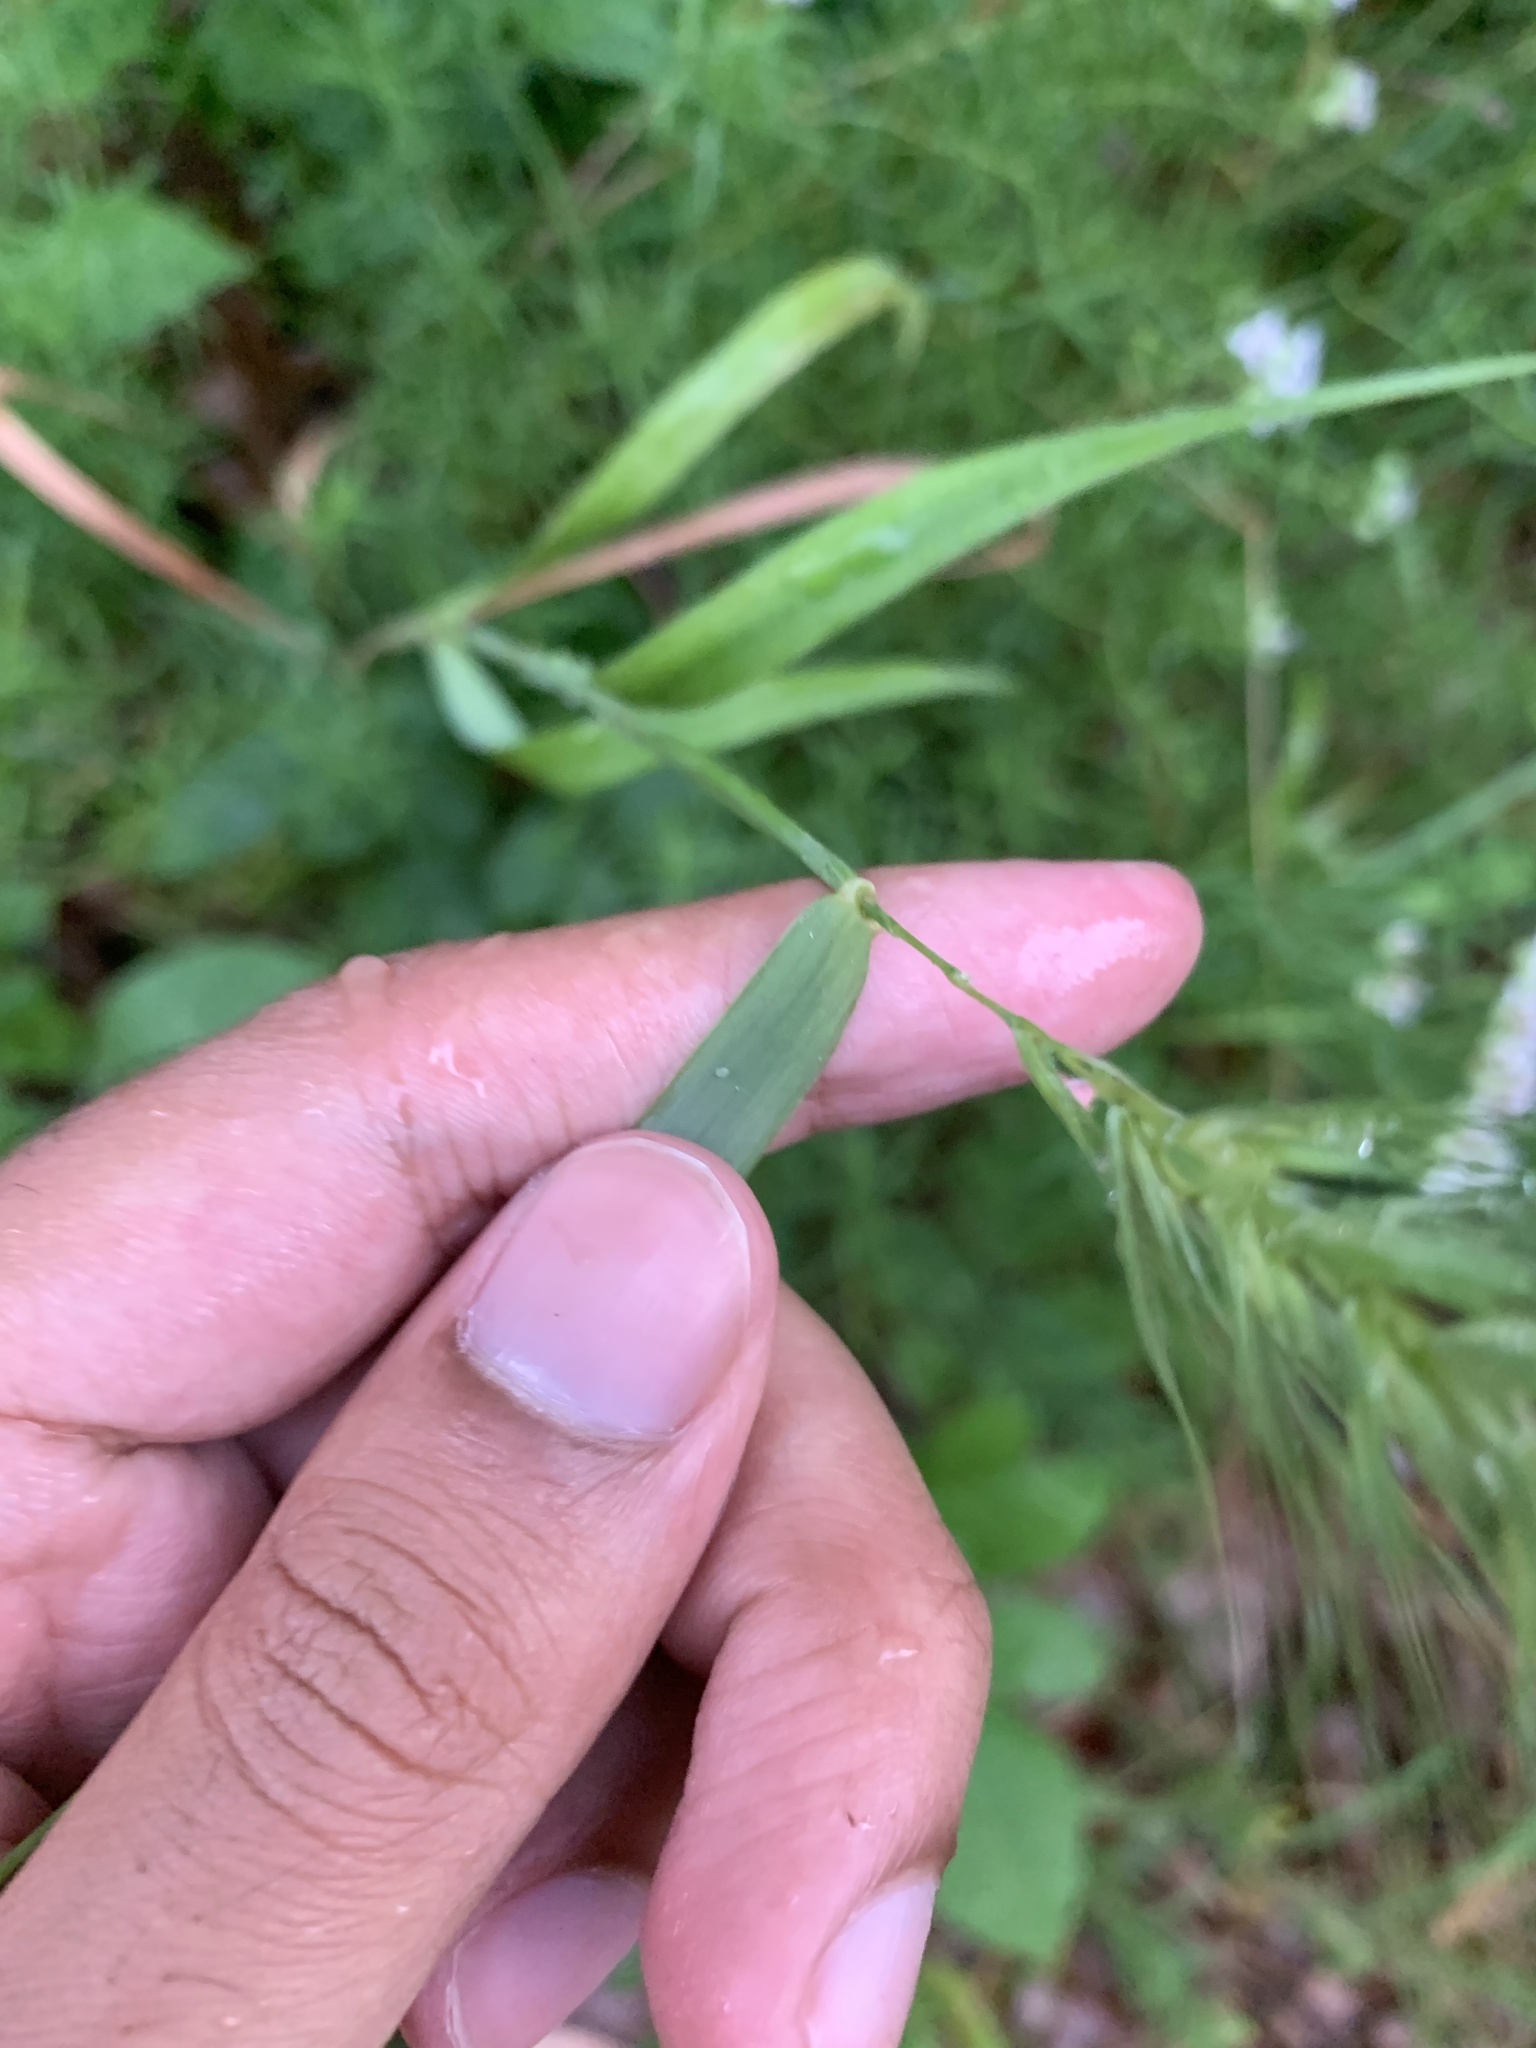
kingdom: Plantae
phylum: Tracheophyta
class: Liliopsida
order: Poales
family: Poaceae
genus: Elymus
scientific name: Elymus virginicus
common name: Common eastern wildrye
